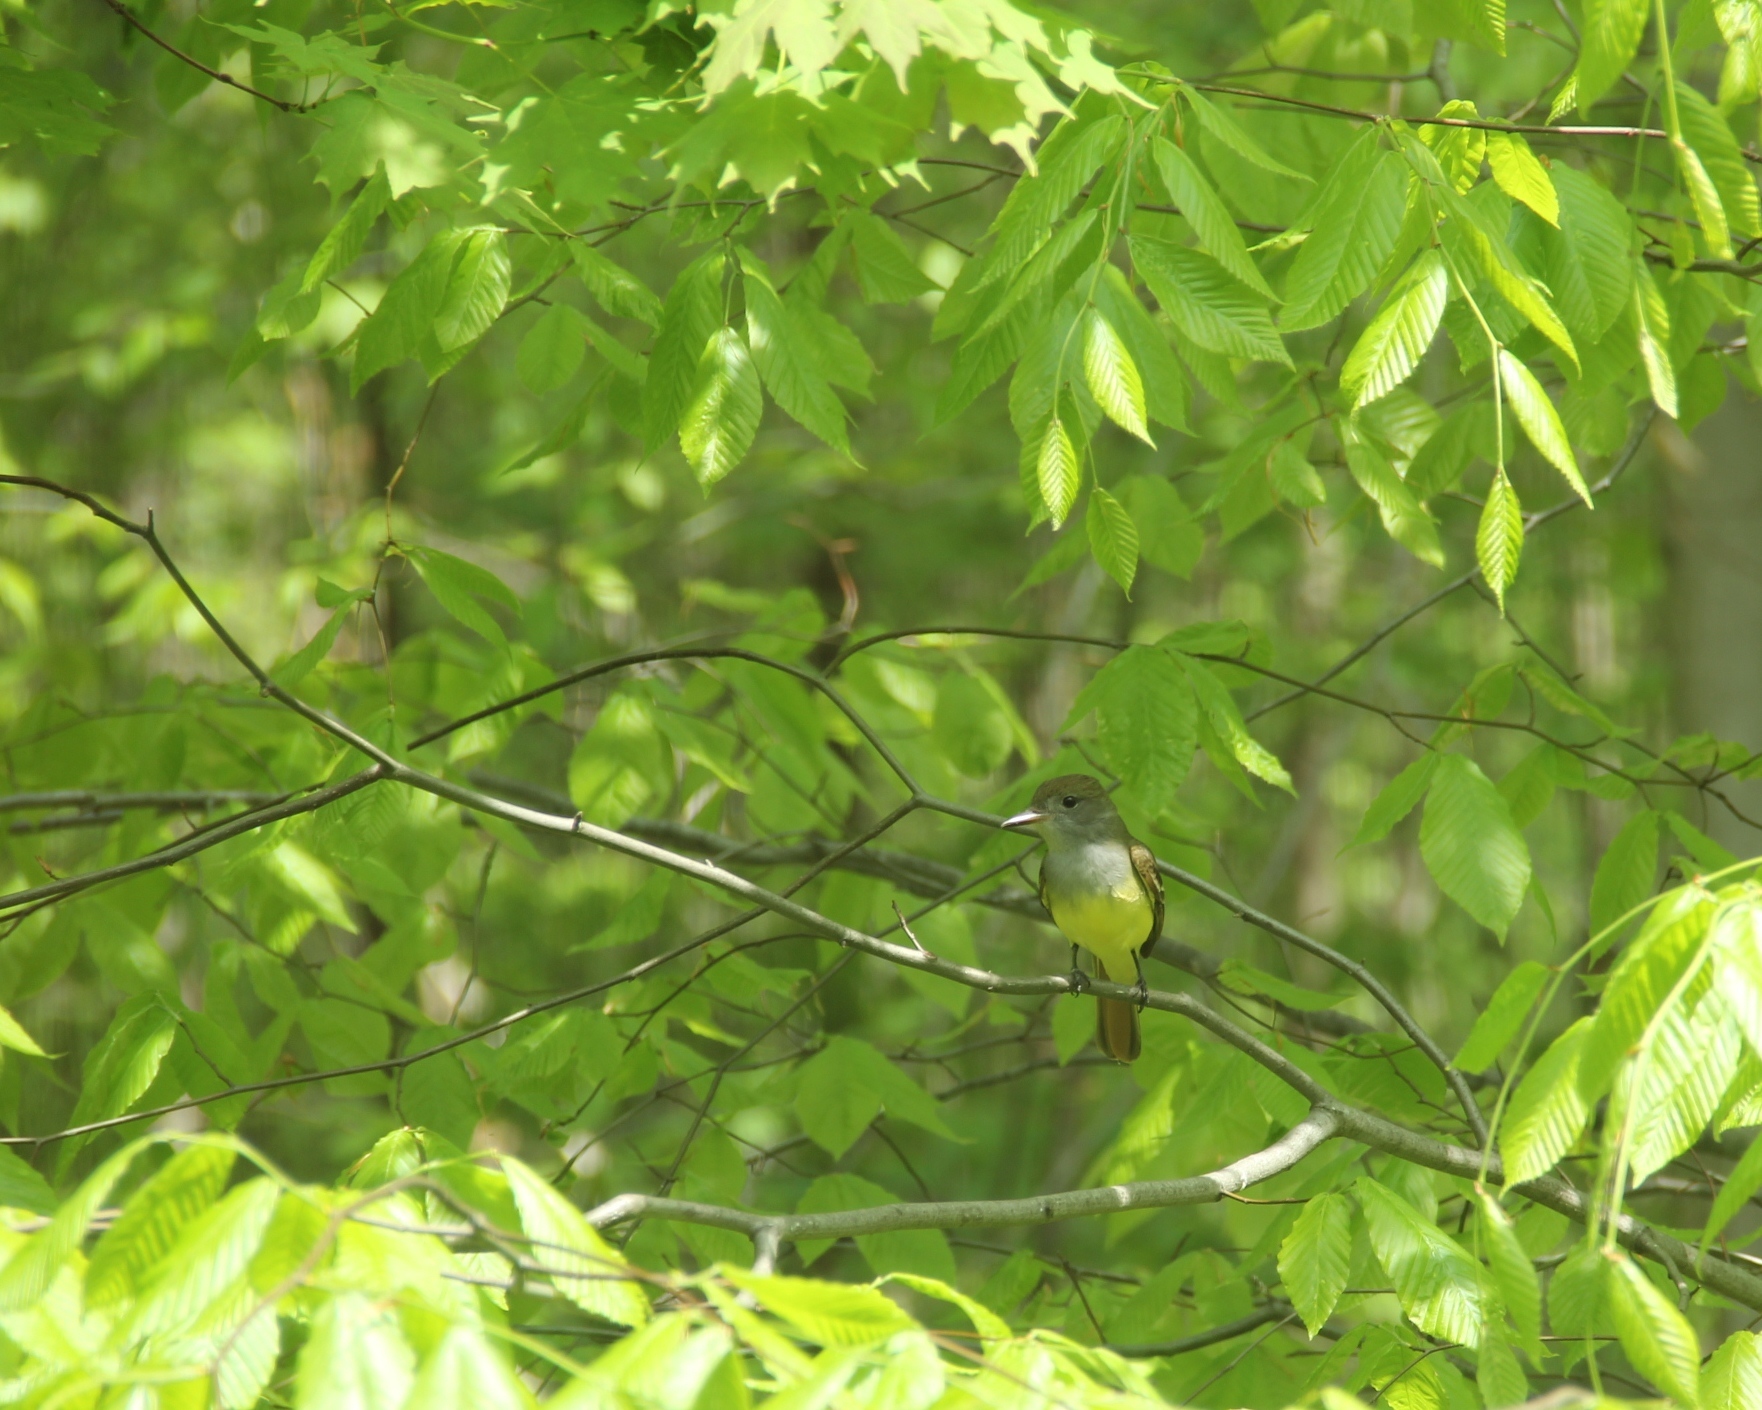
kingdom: Animalia
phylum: Chordata
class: Aves
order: Passeriformes
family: Tyrannidae
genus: Myiarchus
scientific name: Myiarchus crinitus
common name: Great crested flycatcher
